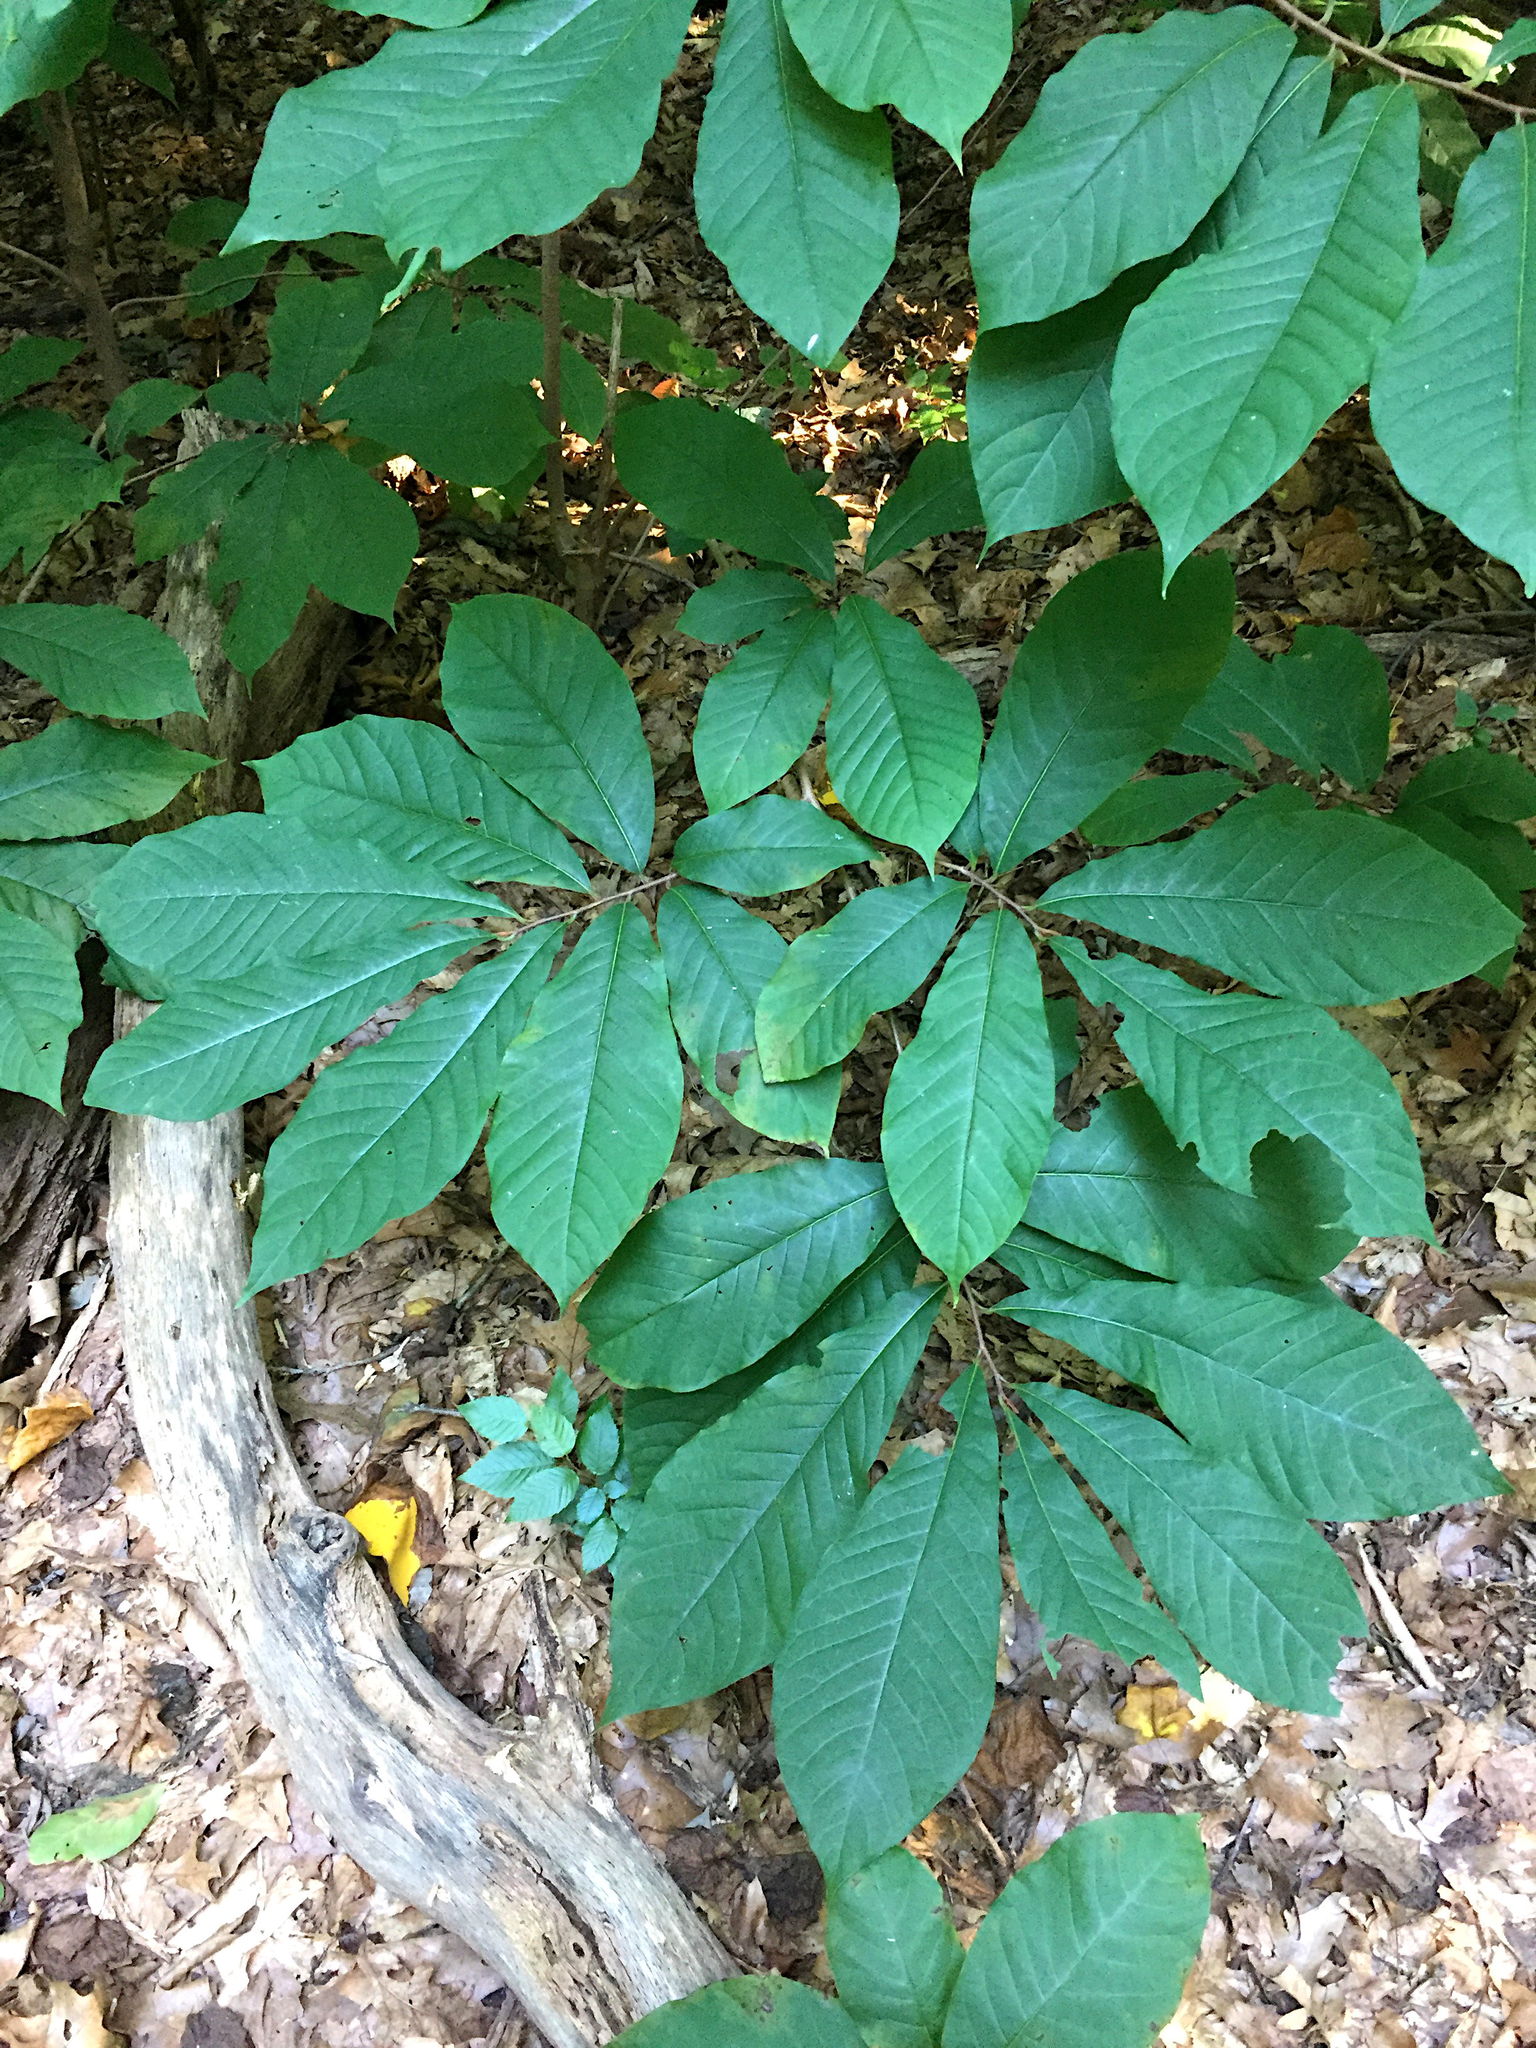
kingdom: Plantae
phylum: Tracheophyta
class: Magnoliopsida
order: Magnoliales
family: Annonaceae
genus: Asimina
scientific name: Asimina triloba
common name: Dog-banana
